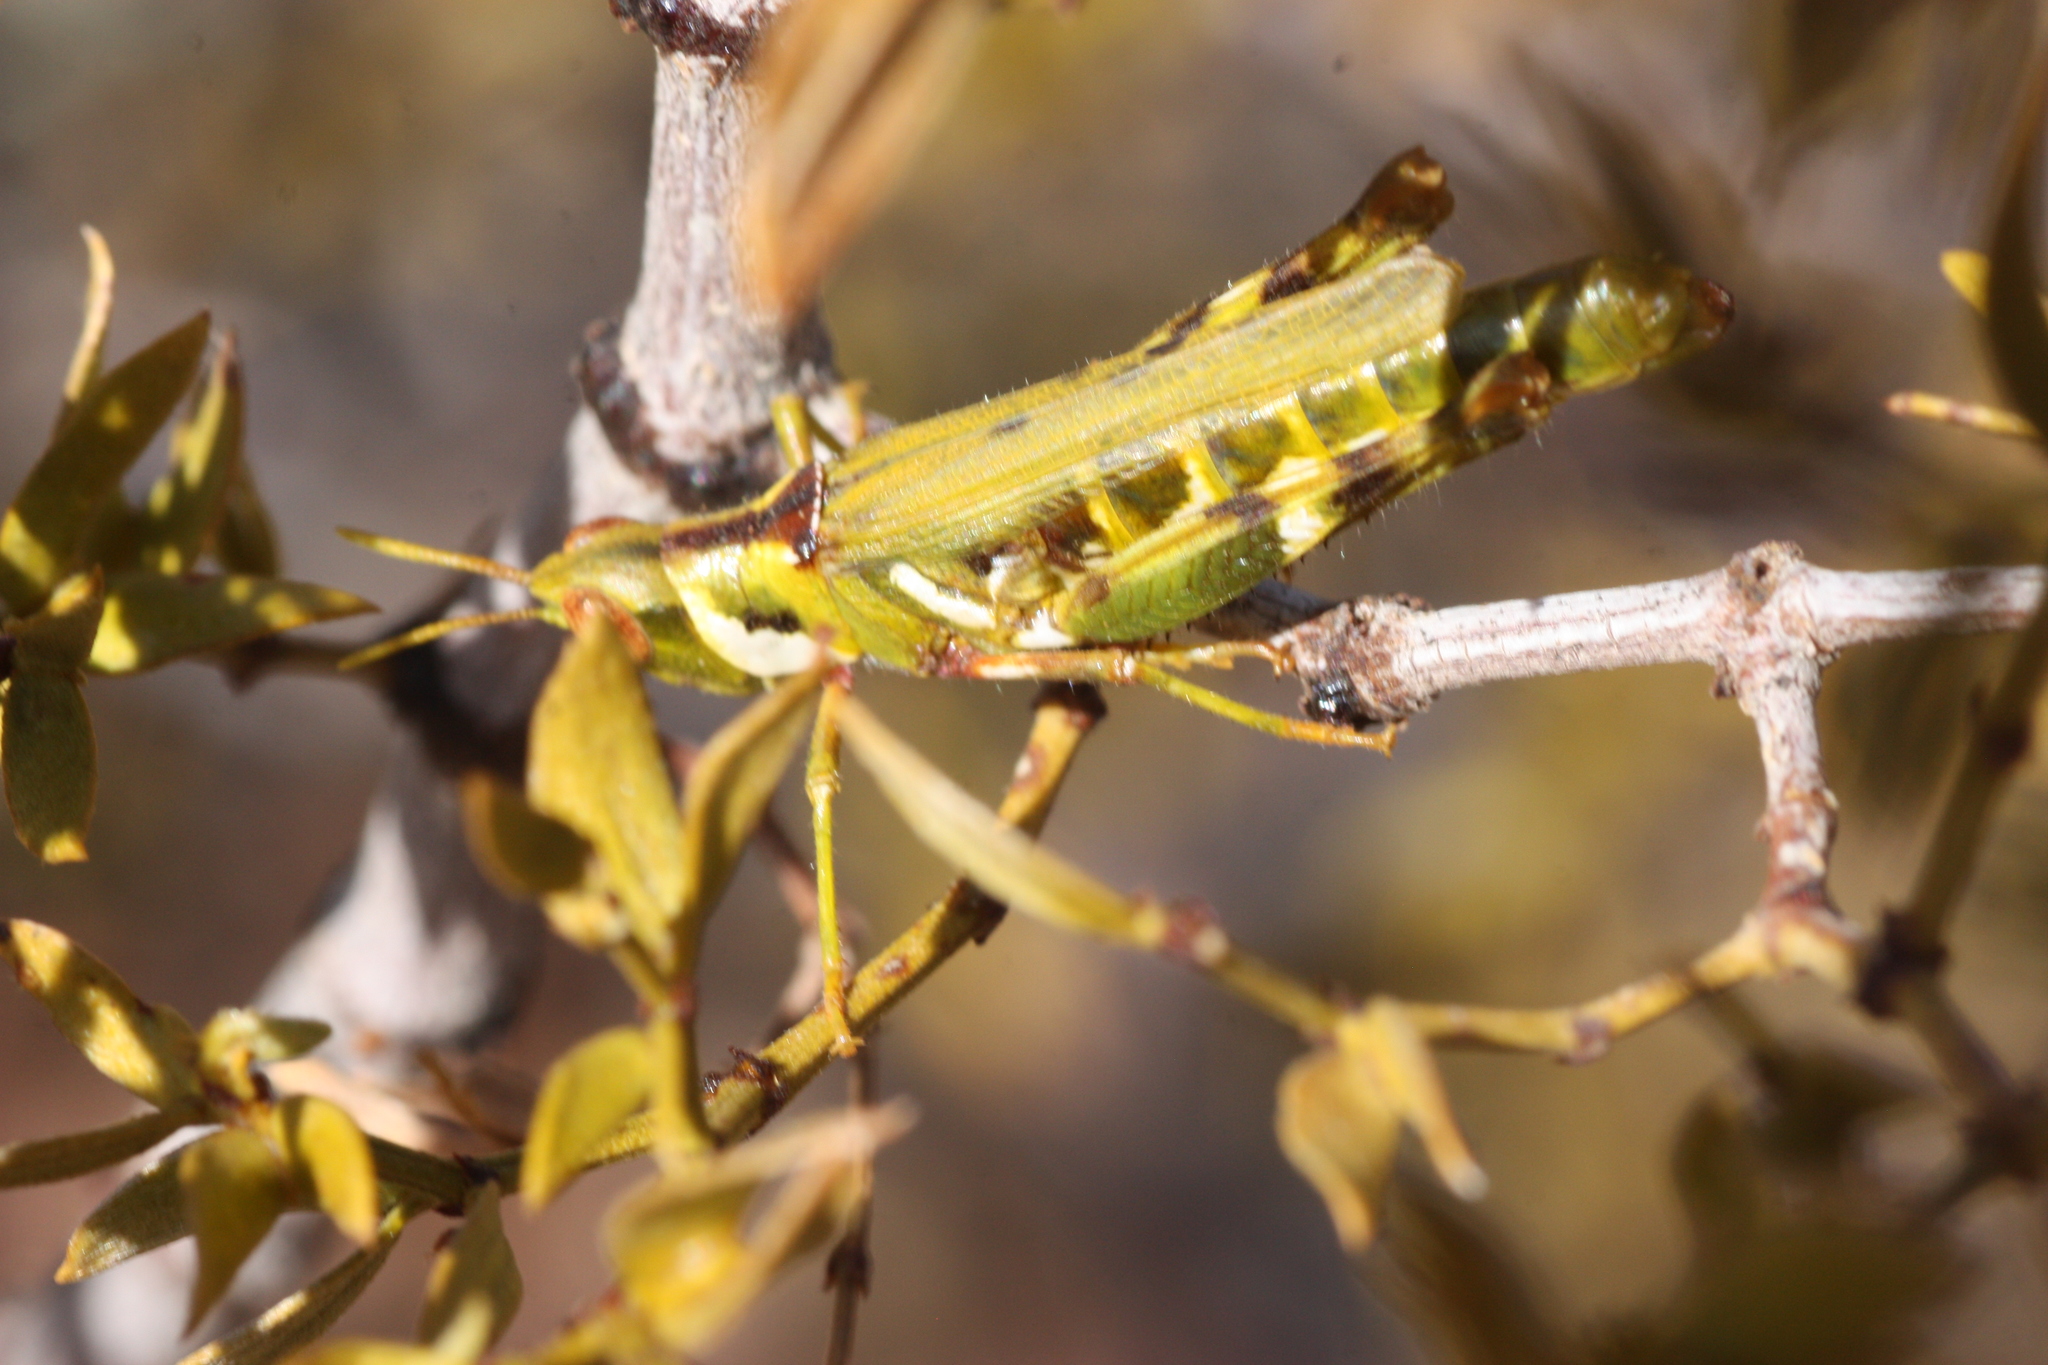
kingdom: Animalia
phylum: Arthropoda
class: Insecta
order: Orthoptera
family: Acrididae
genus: Bootettix
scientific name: Bootettix argentatus
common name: Creosote bush grasshopper
